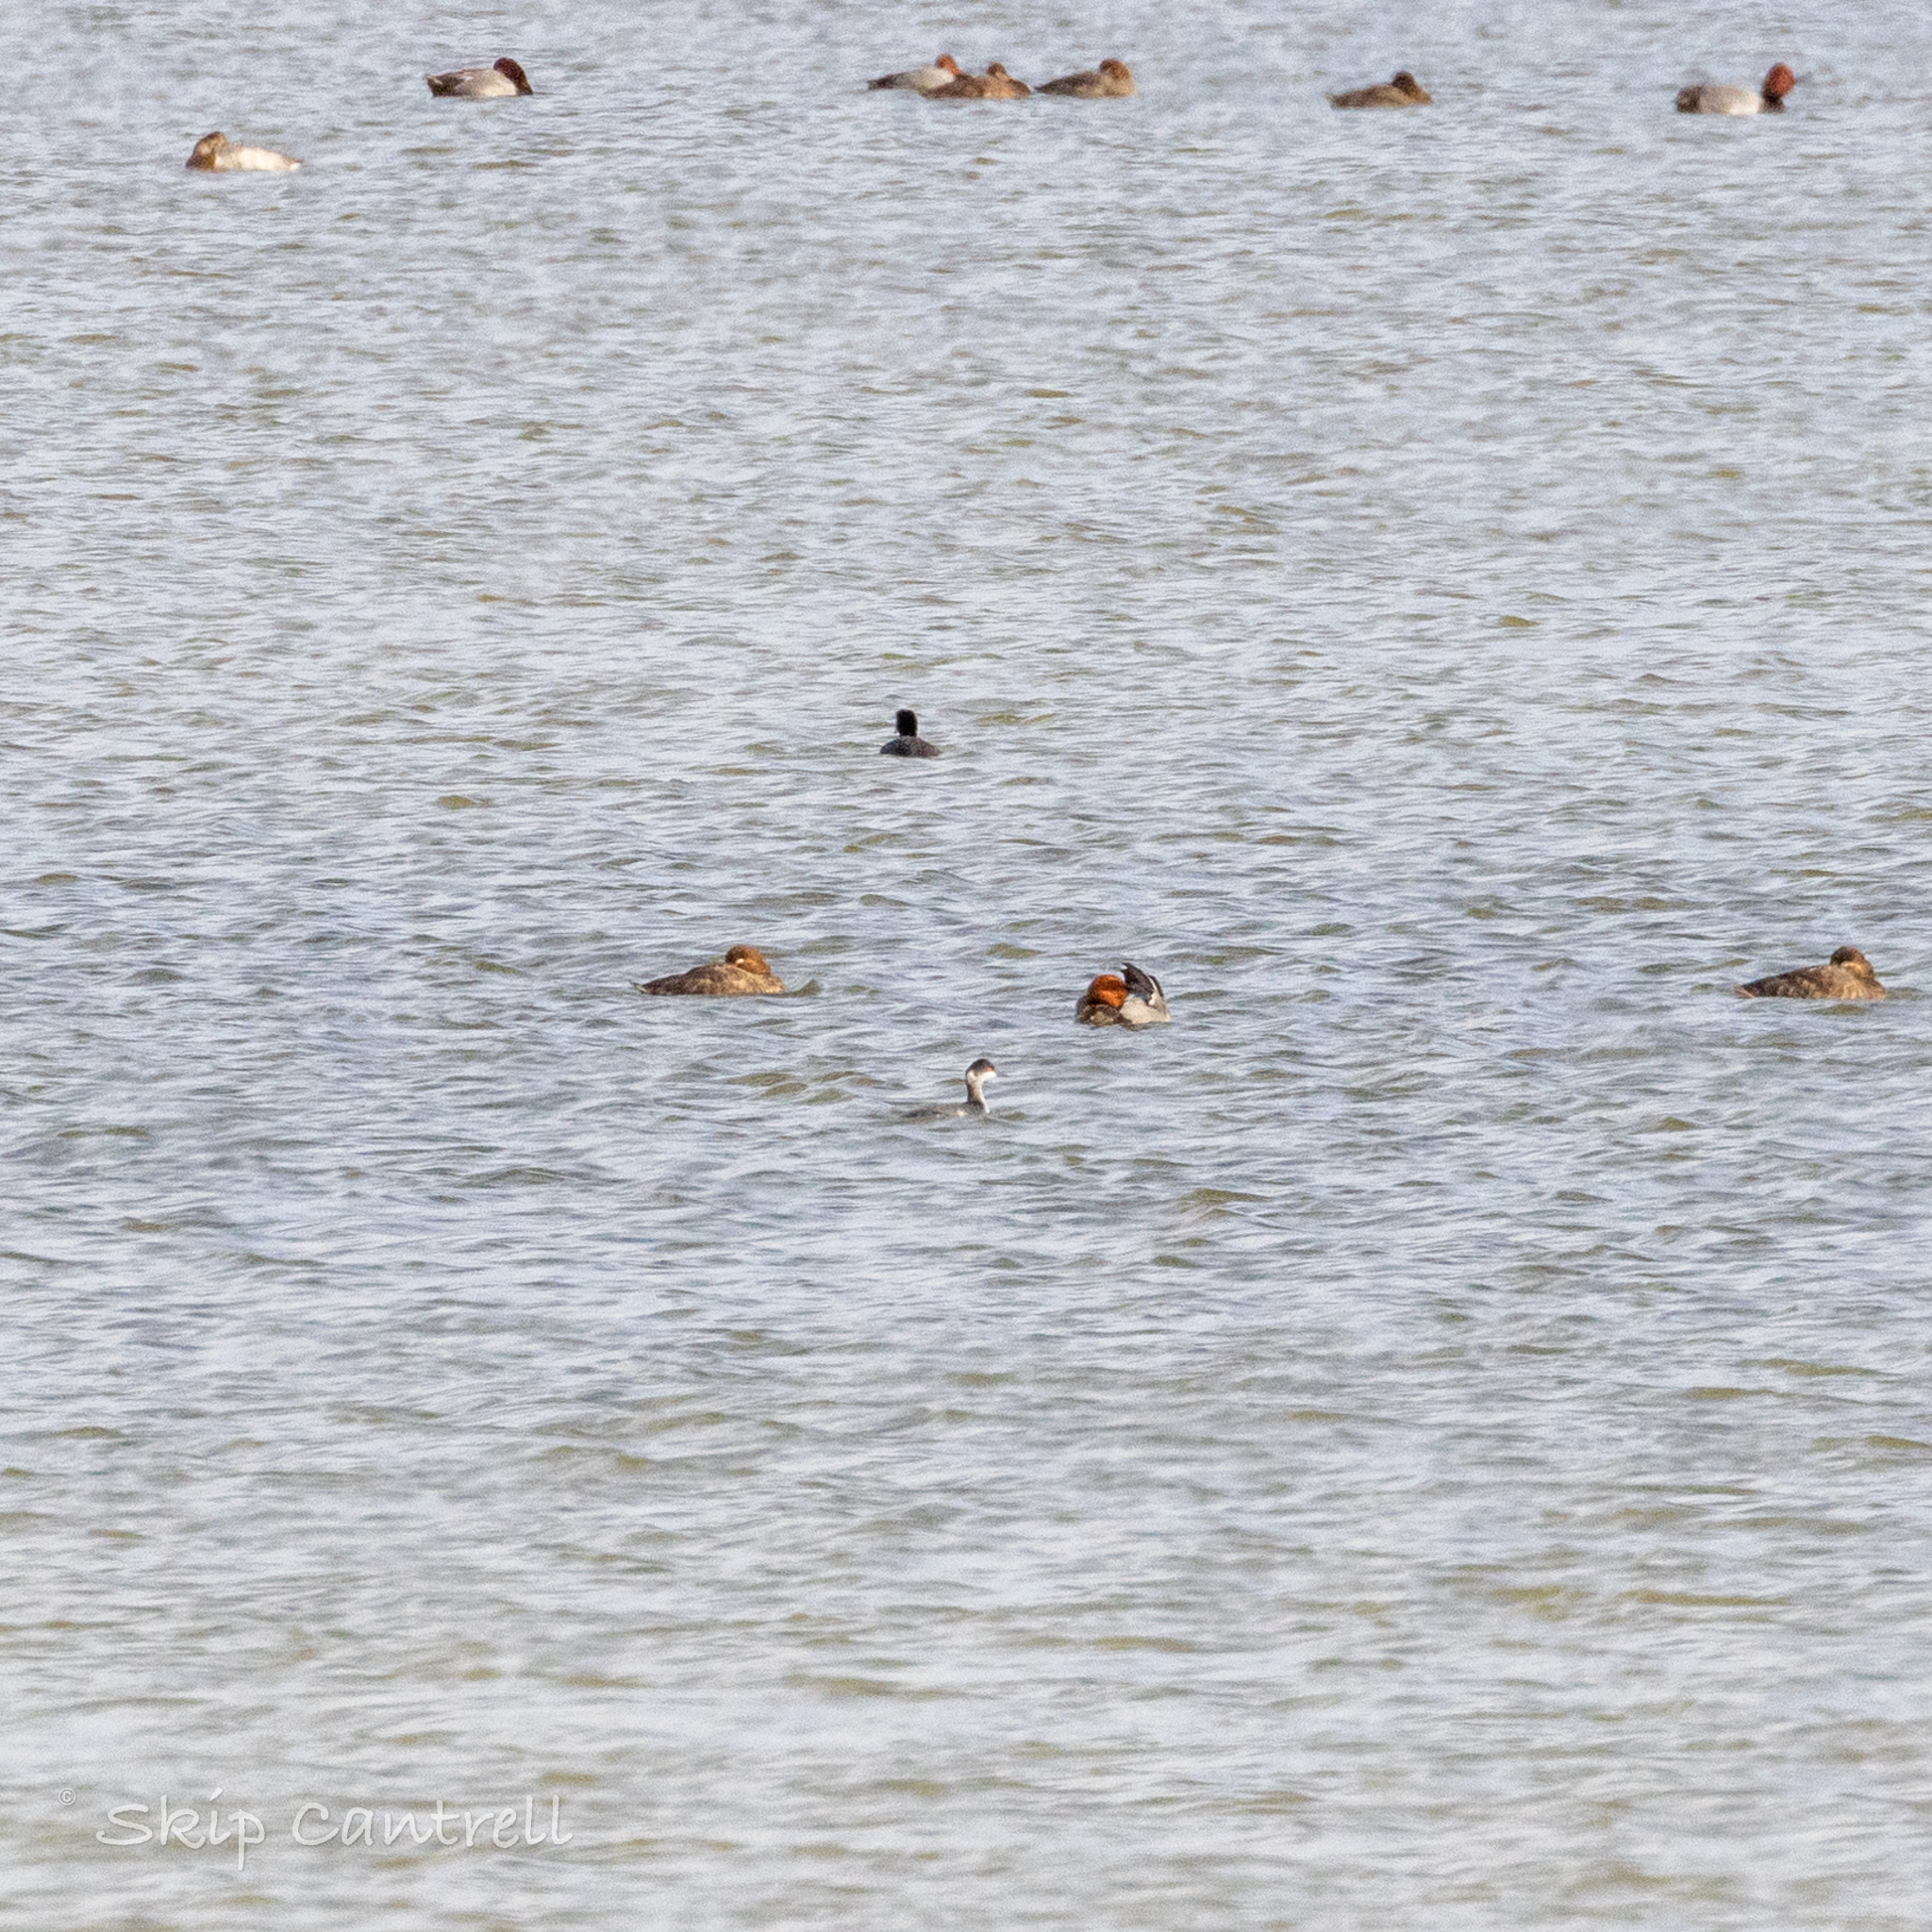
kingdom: Animalia
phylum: Chordata
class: Aves
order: Podicipediformes
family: Podicipedidae
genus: Podiceps
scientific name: Podiceps nigricollis
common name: Black-necked grebe
